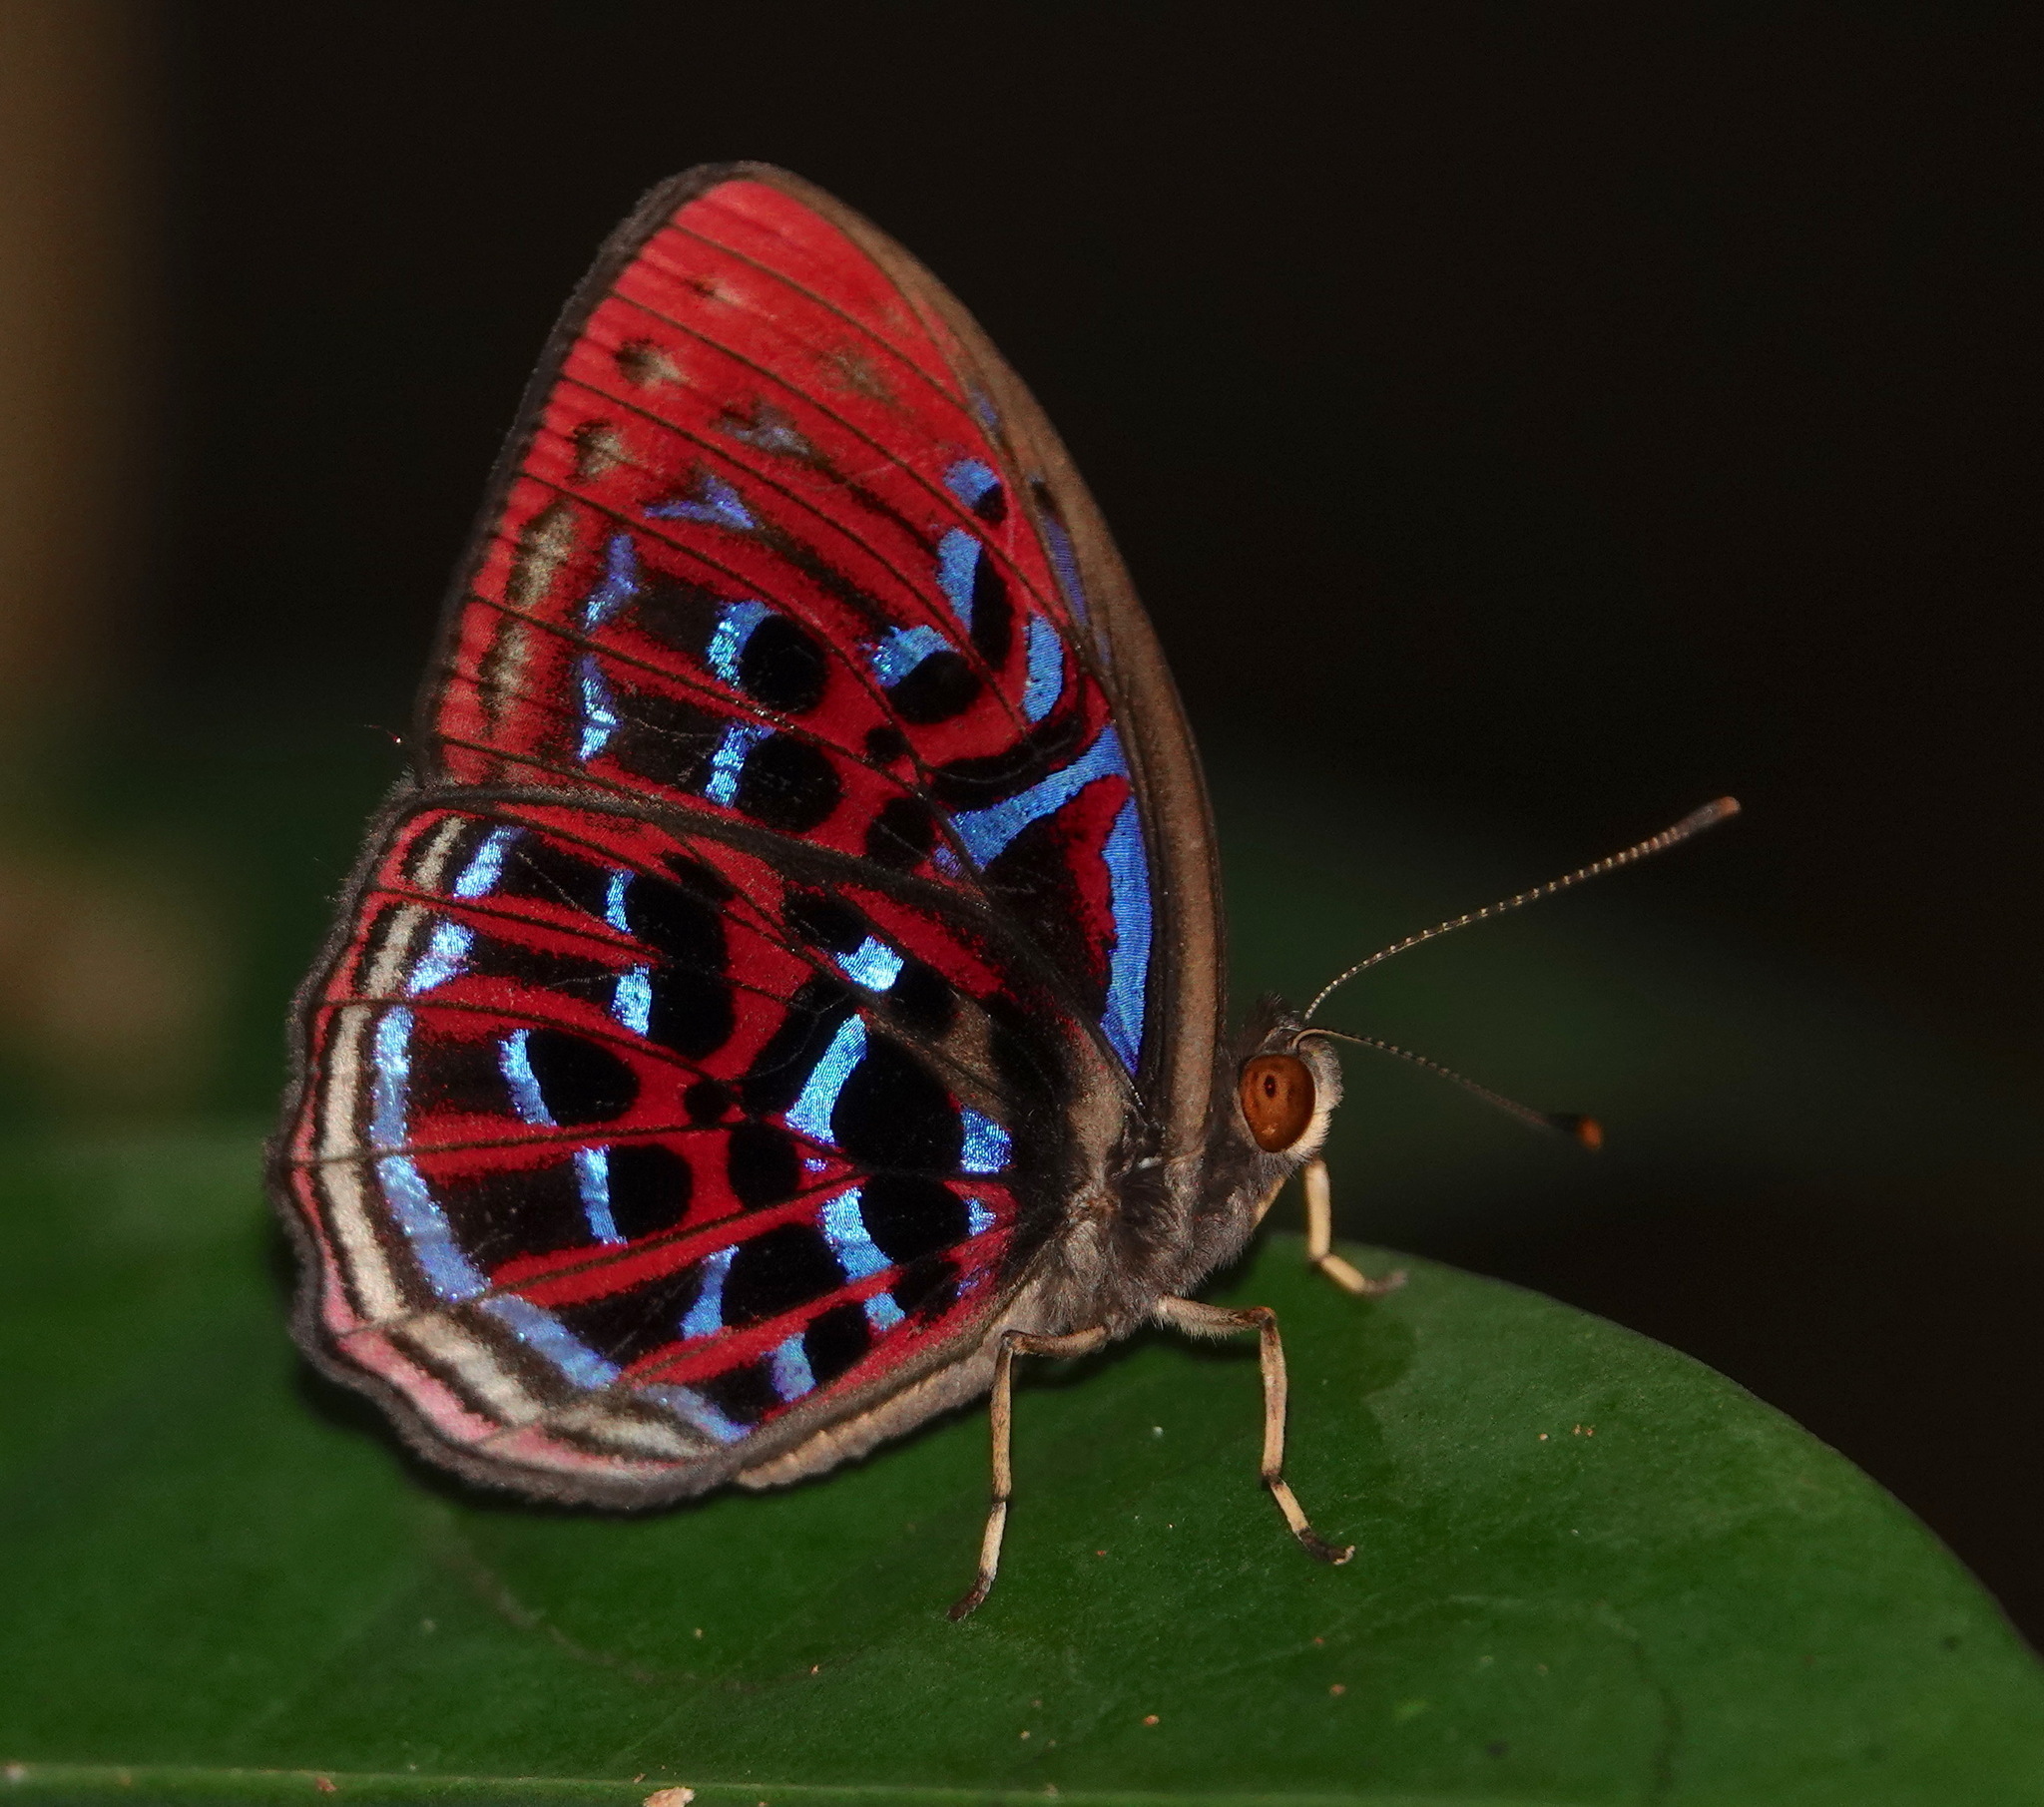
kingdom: Animalia
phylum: Arthropoda
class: Insecta
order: Lepidoptera
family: Riodinidae
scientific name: Riodinidae
